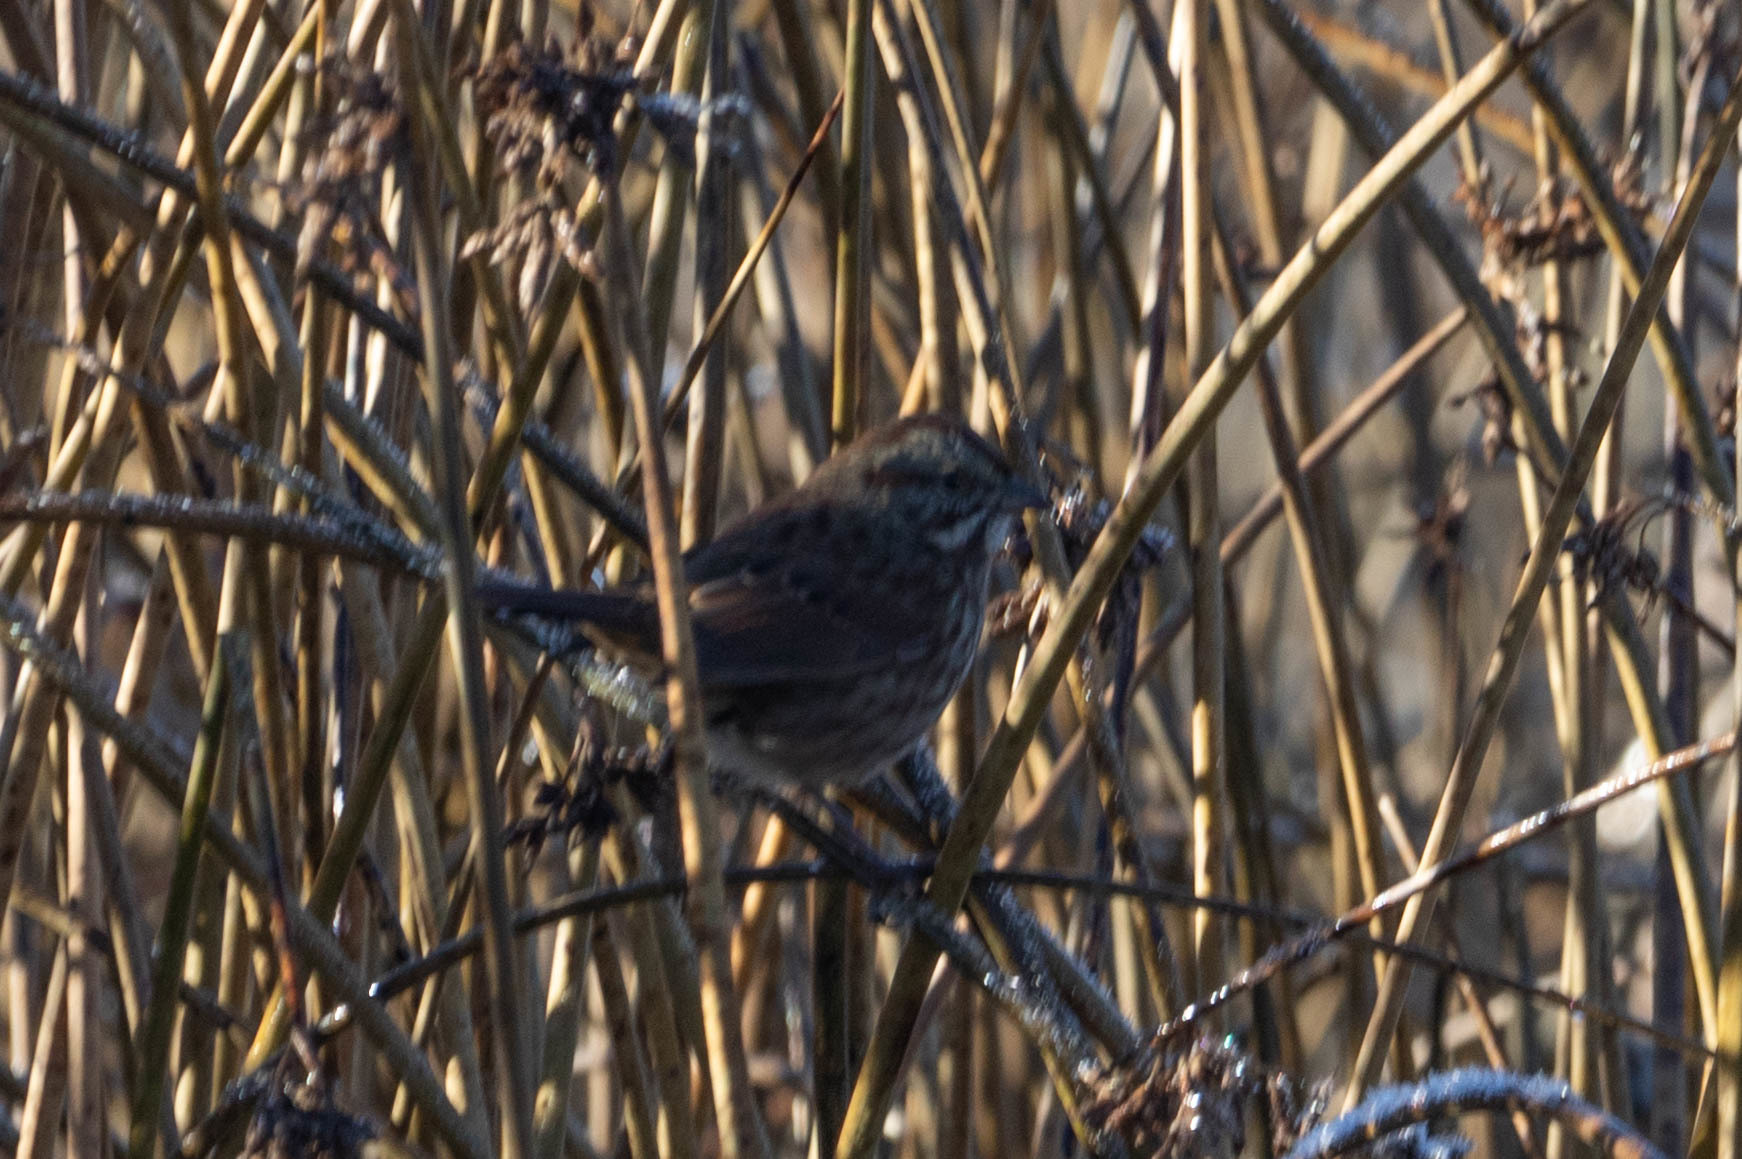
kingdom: Animalia
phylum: Chordata
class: Aves
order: Passeriformes
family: Passerellidae
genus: Melospiza
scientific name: Melospiza melodia
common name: Song sparrow
